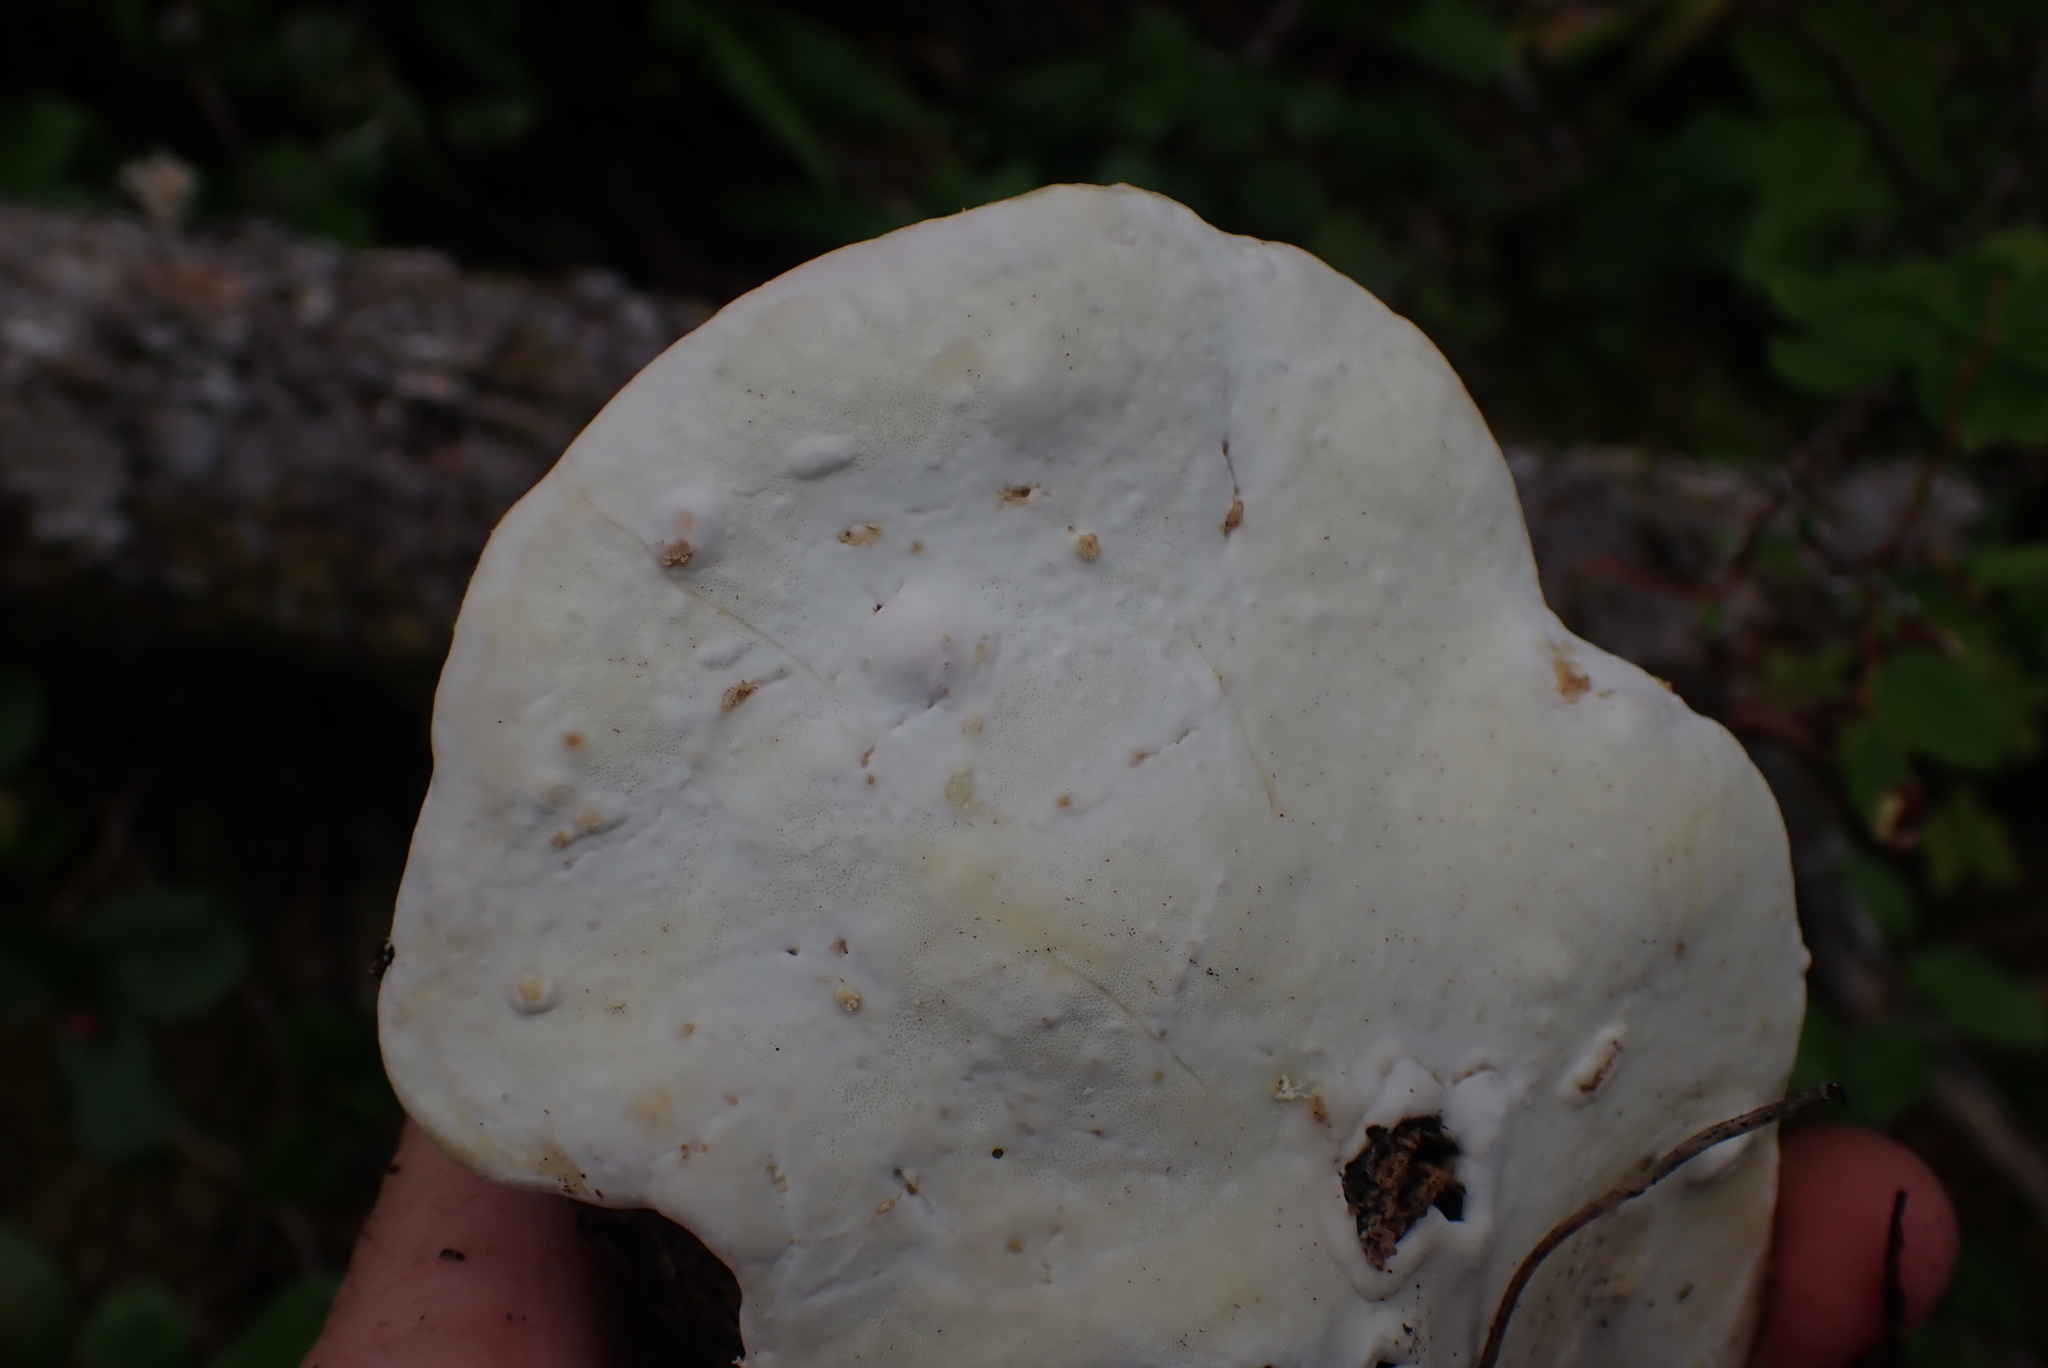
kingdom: Fungi
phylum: Basidiomycota
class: Agaricomycetes
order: Polyporales
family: Fomitopsidaceae
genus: Fomitopsis
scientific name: Fomitopsis mounceae
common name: Northern red belt
